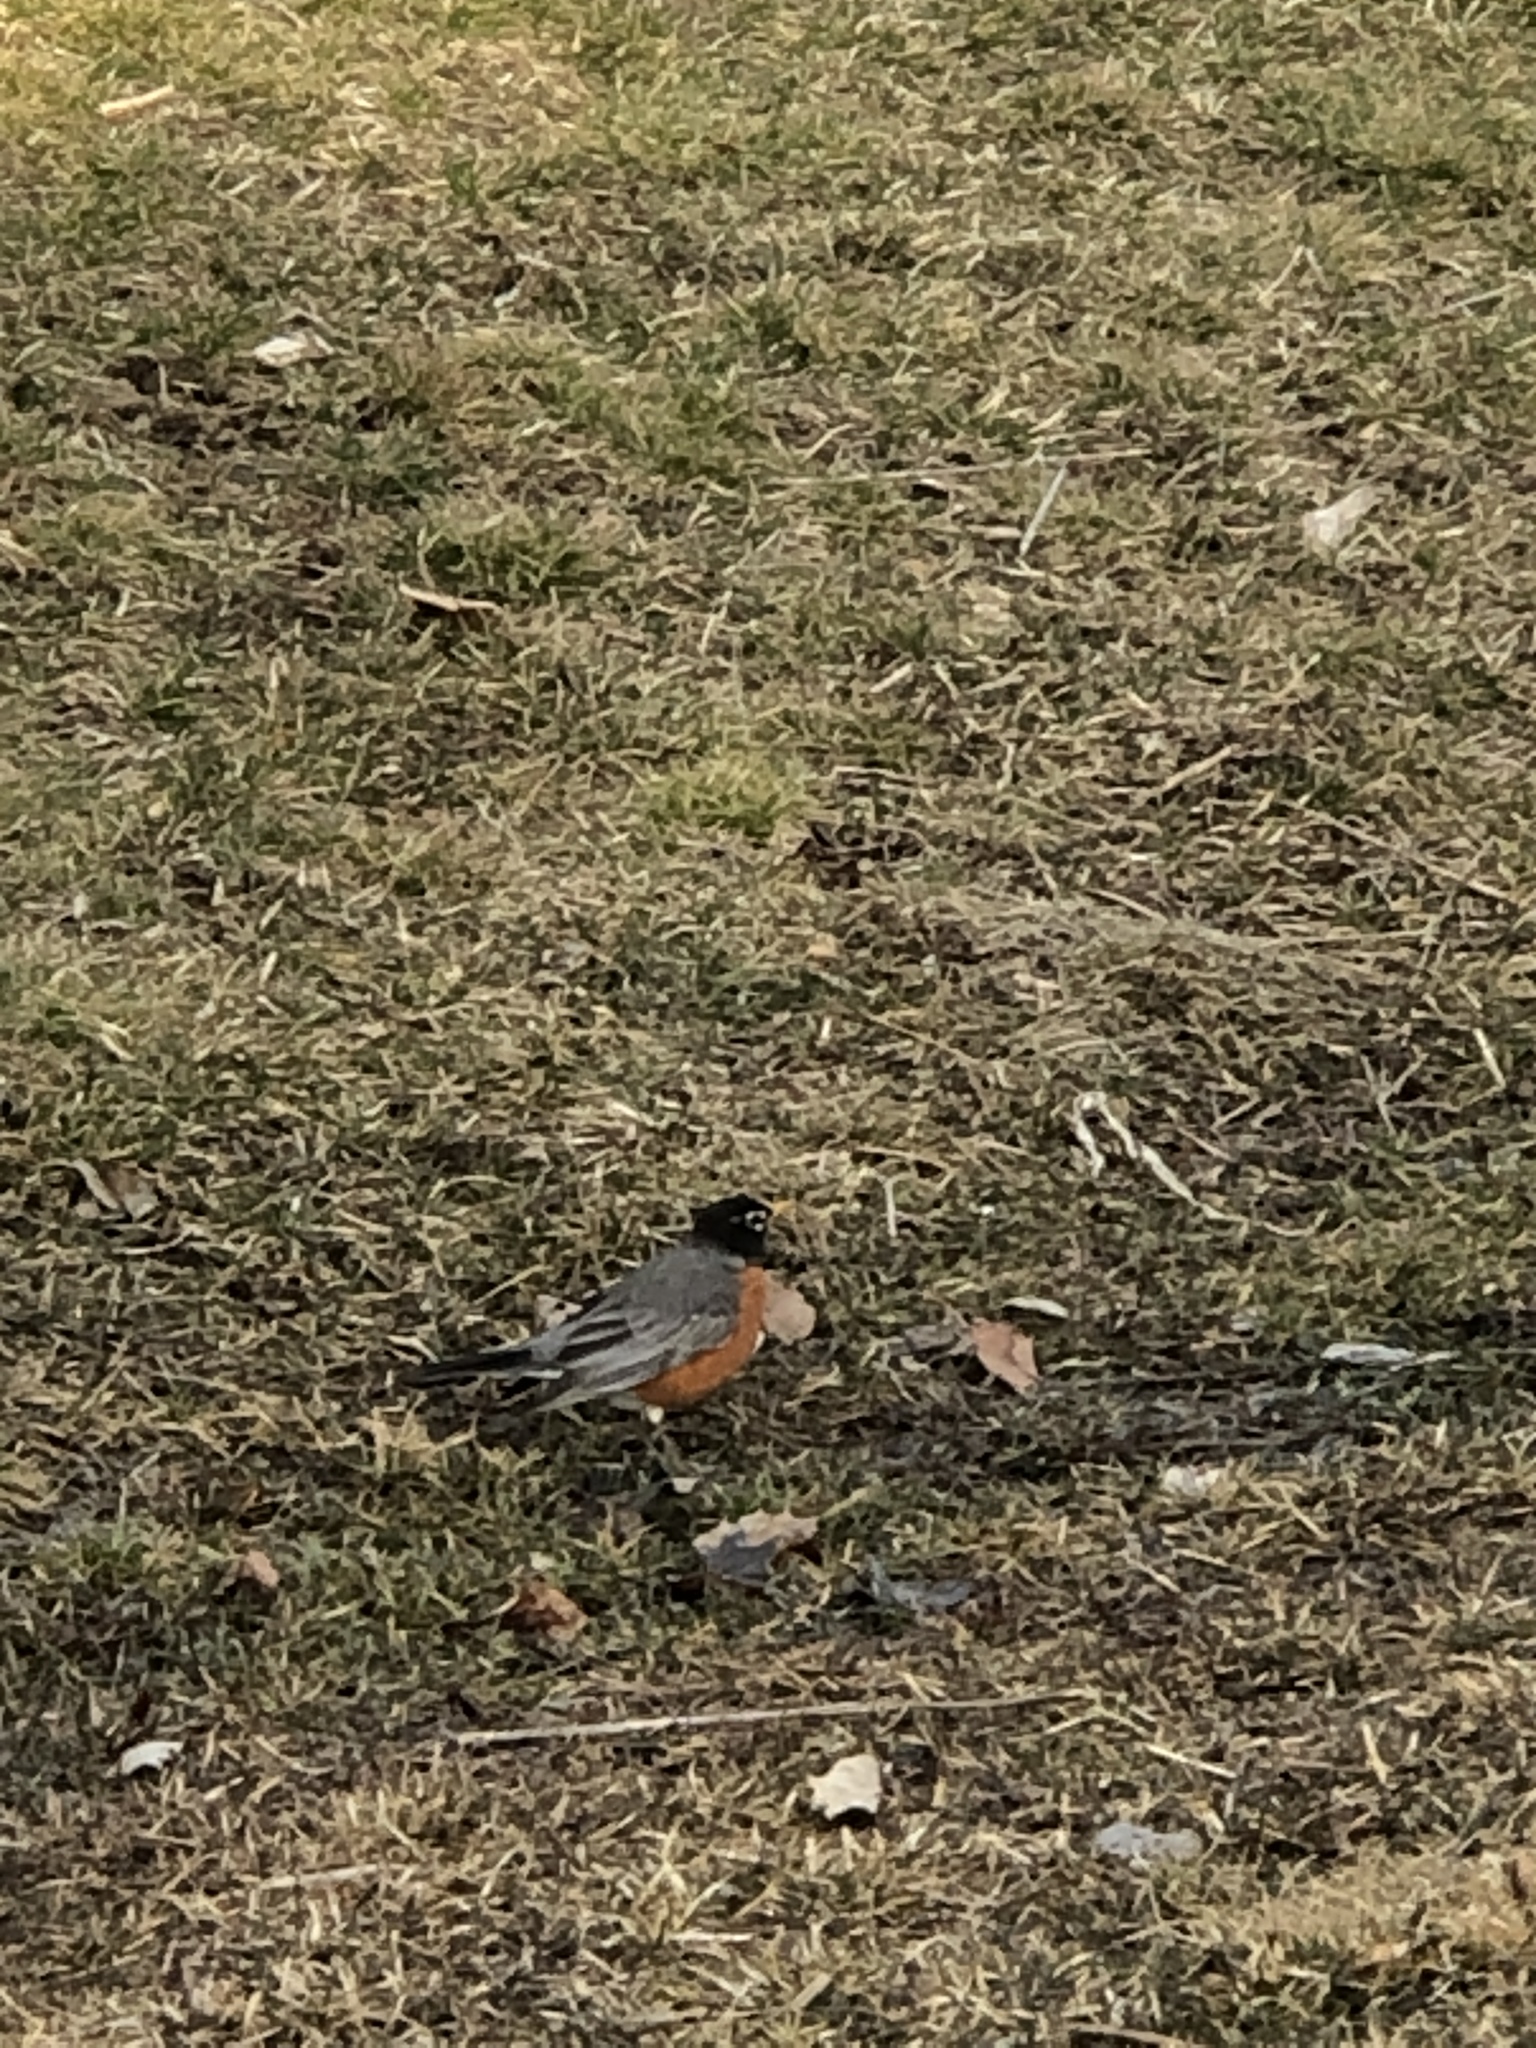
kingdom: Animalia
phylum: Chordata
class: Aves
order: Passeriformes
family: Turdidae
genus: Turdus
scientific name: Turdus migratorius
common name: American robin
